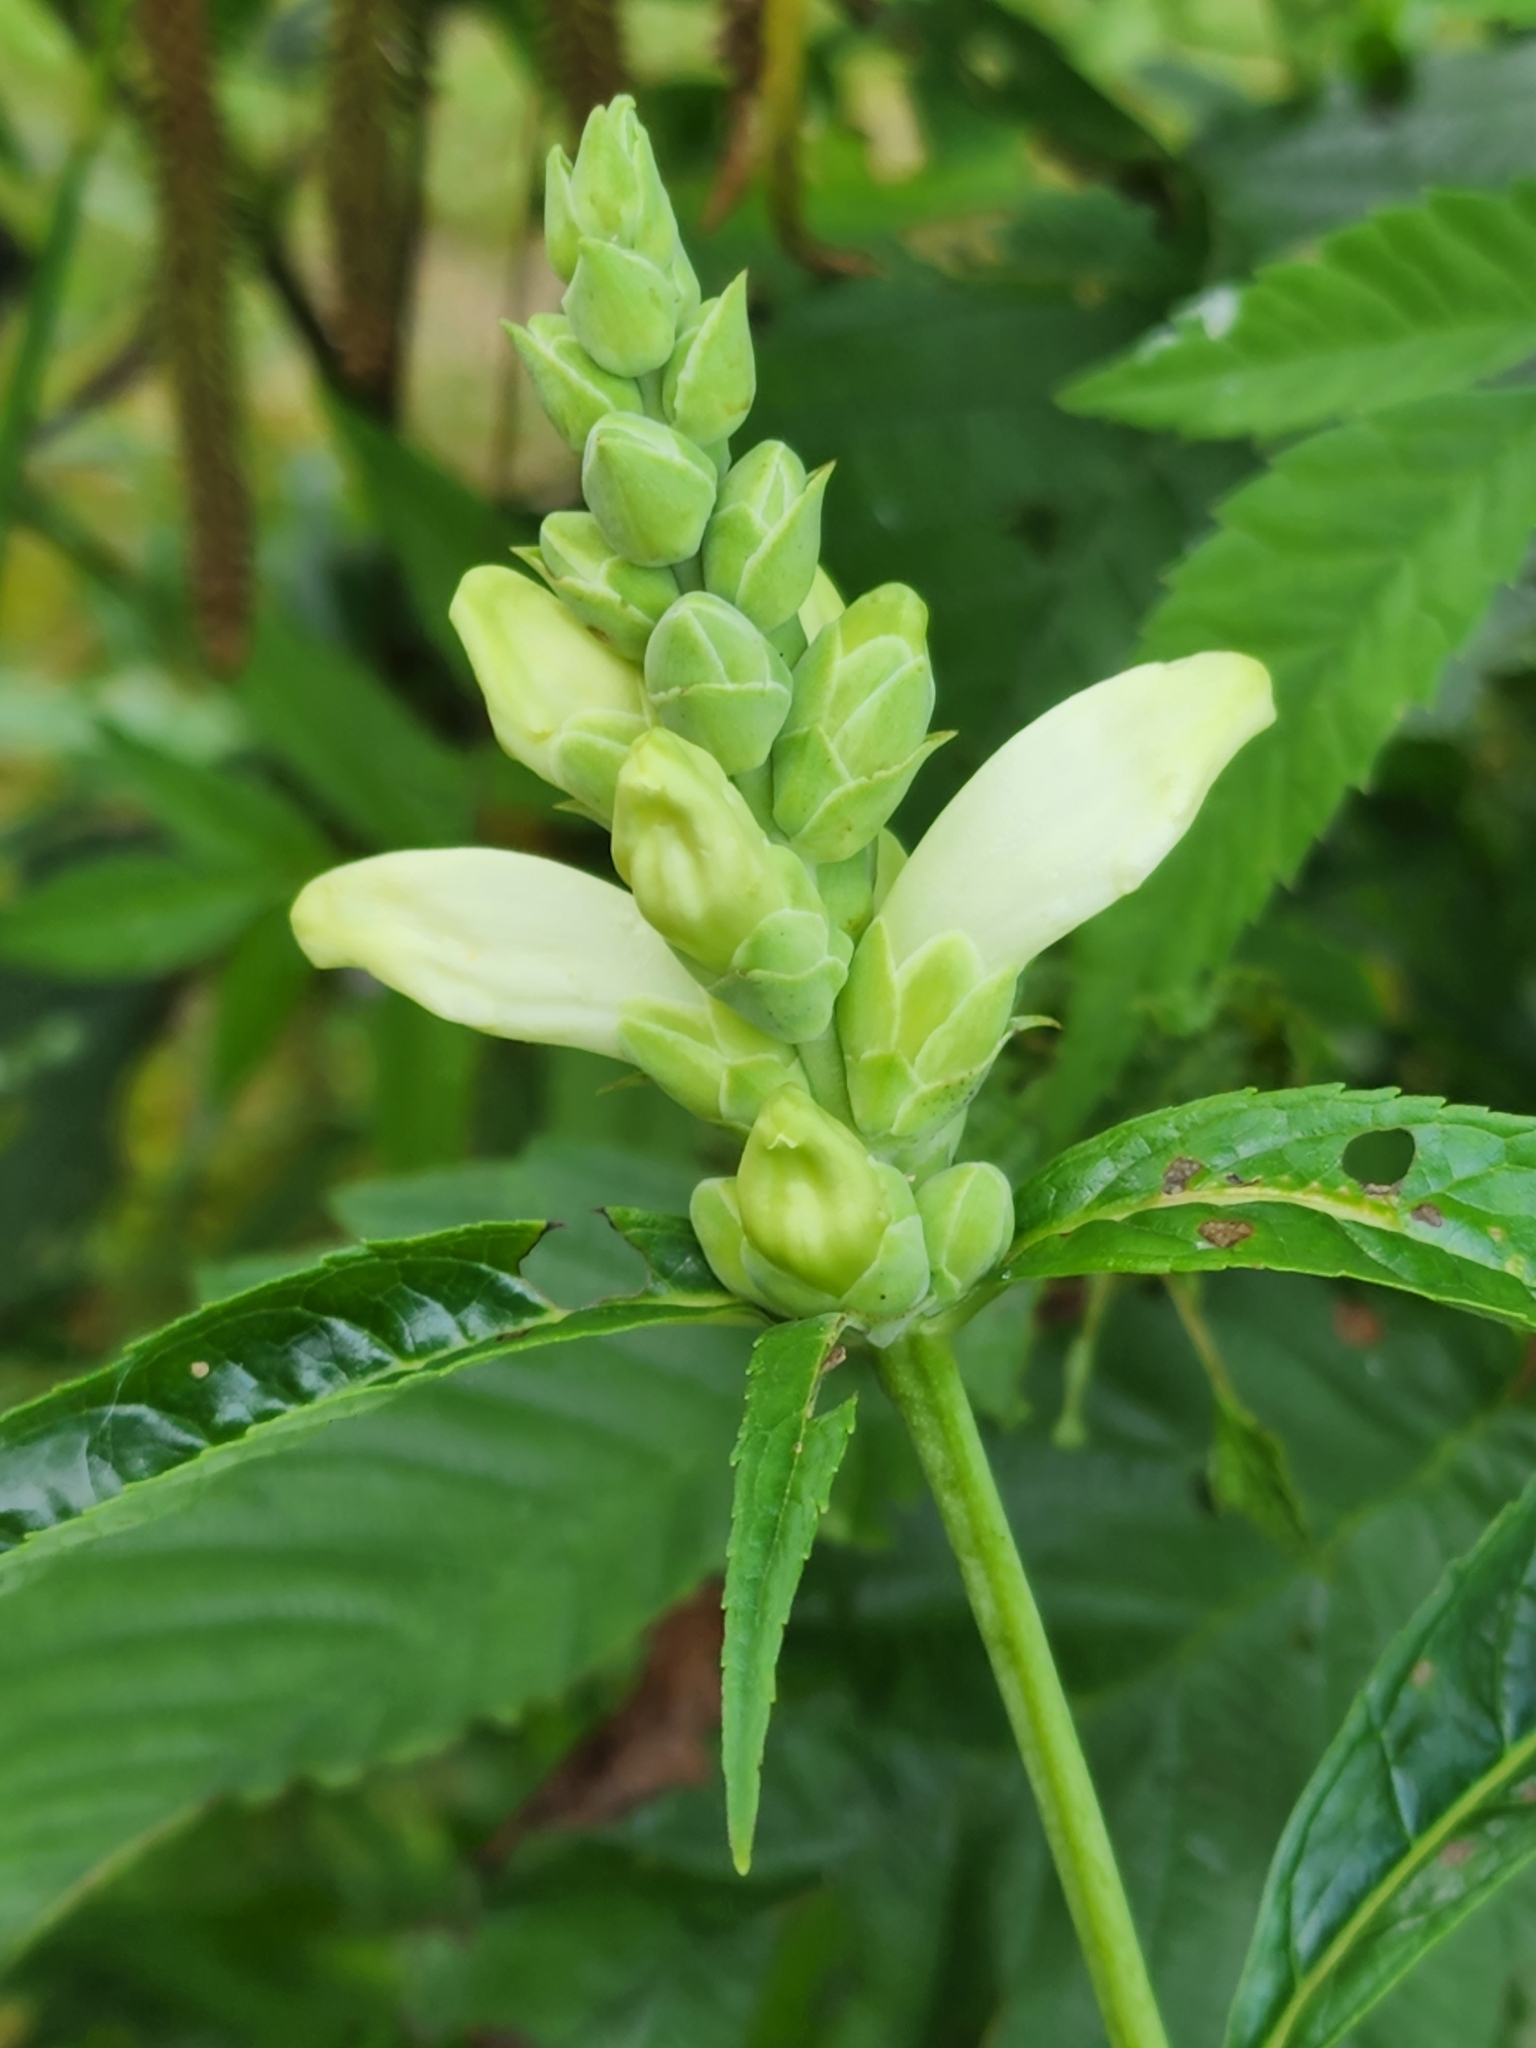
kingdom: Plantae
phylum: Tracheophyta
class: Magnoliopsida
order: Lamiales
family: Plantaginaceae
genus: Chelone
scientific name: Chelone glabra
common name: Snakehead
